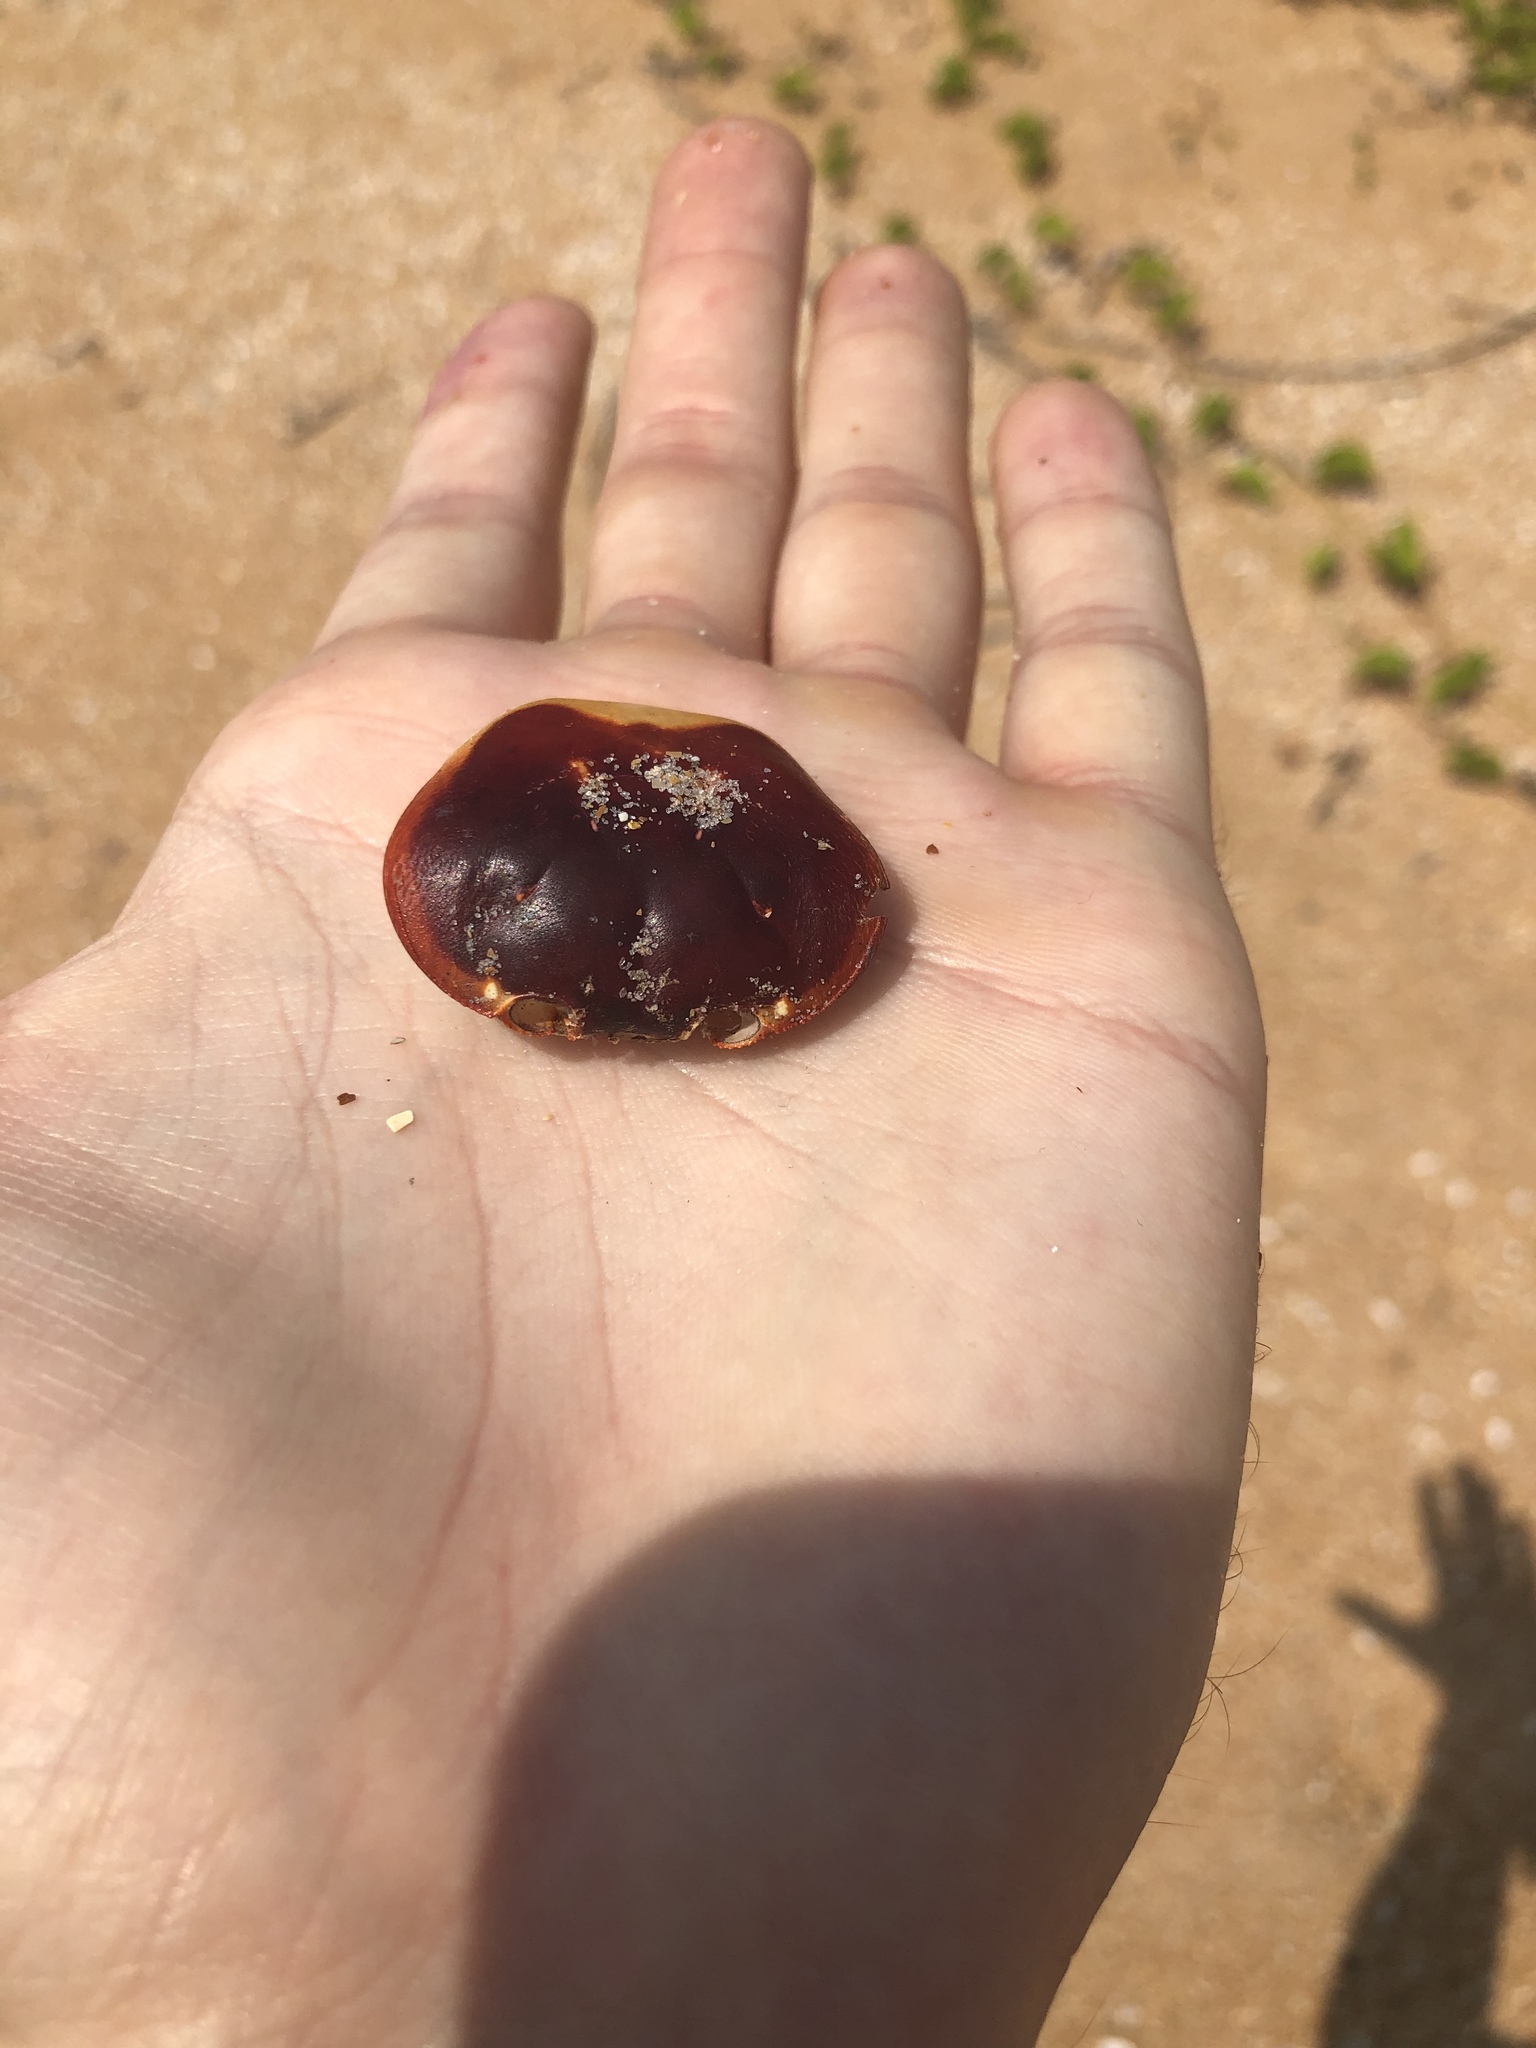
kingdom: Animalia
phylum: Arthropoda
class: Malacostraca
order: Decapoda
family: Gecarcinidae
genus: Gecarcinus
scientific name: Gecarcinus lateralis
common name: Bermuda land crab
